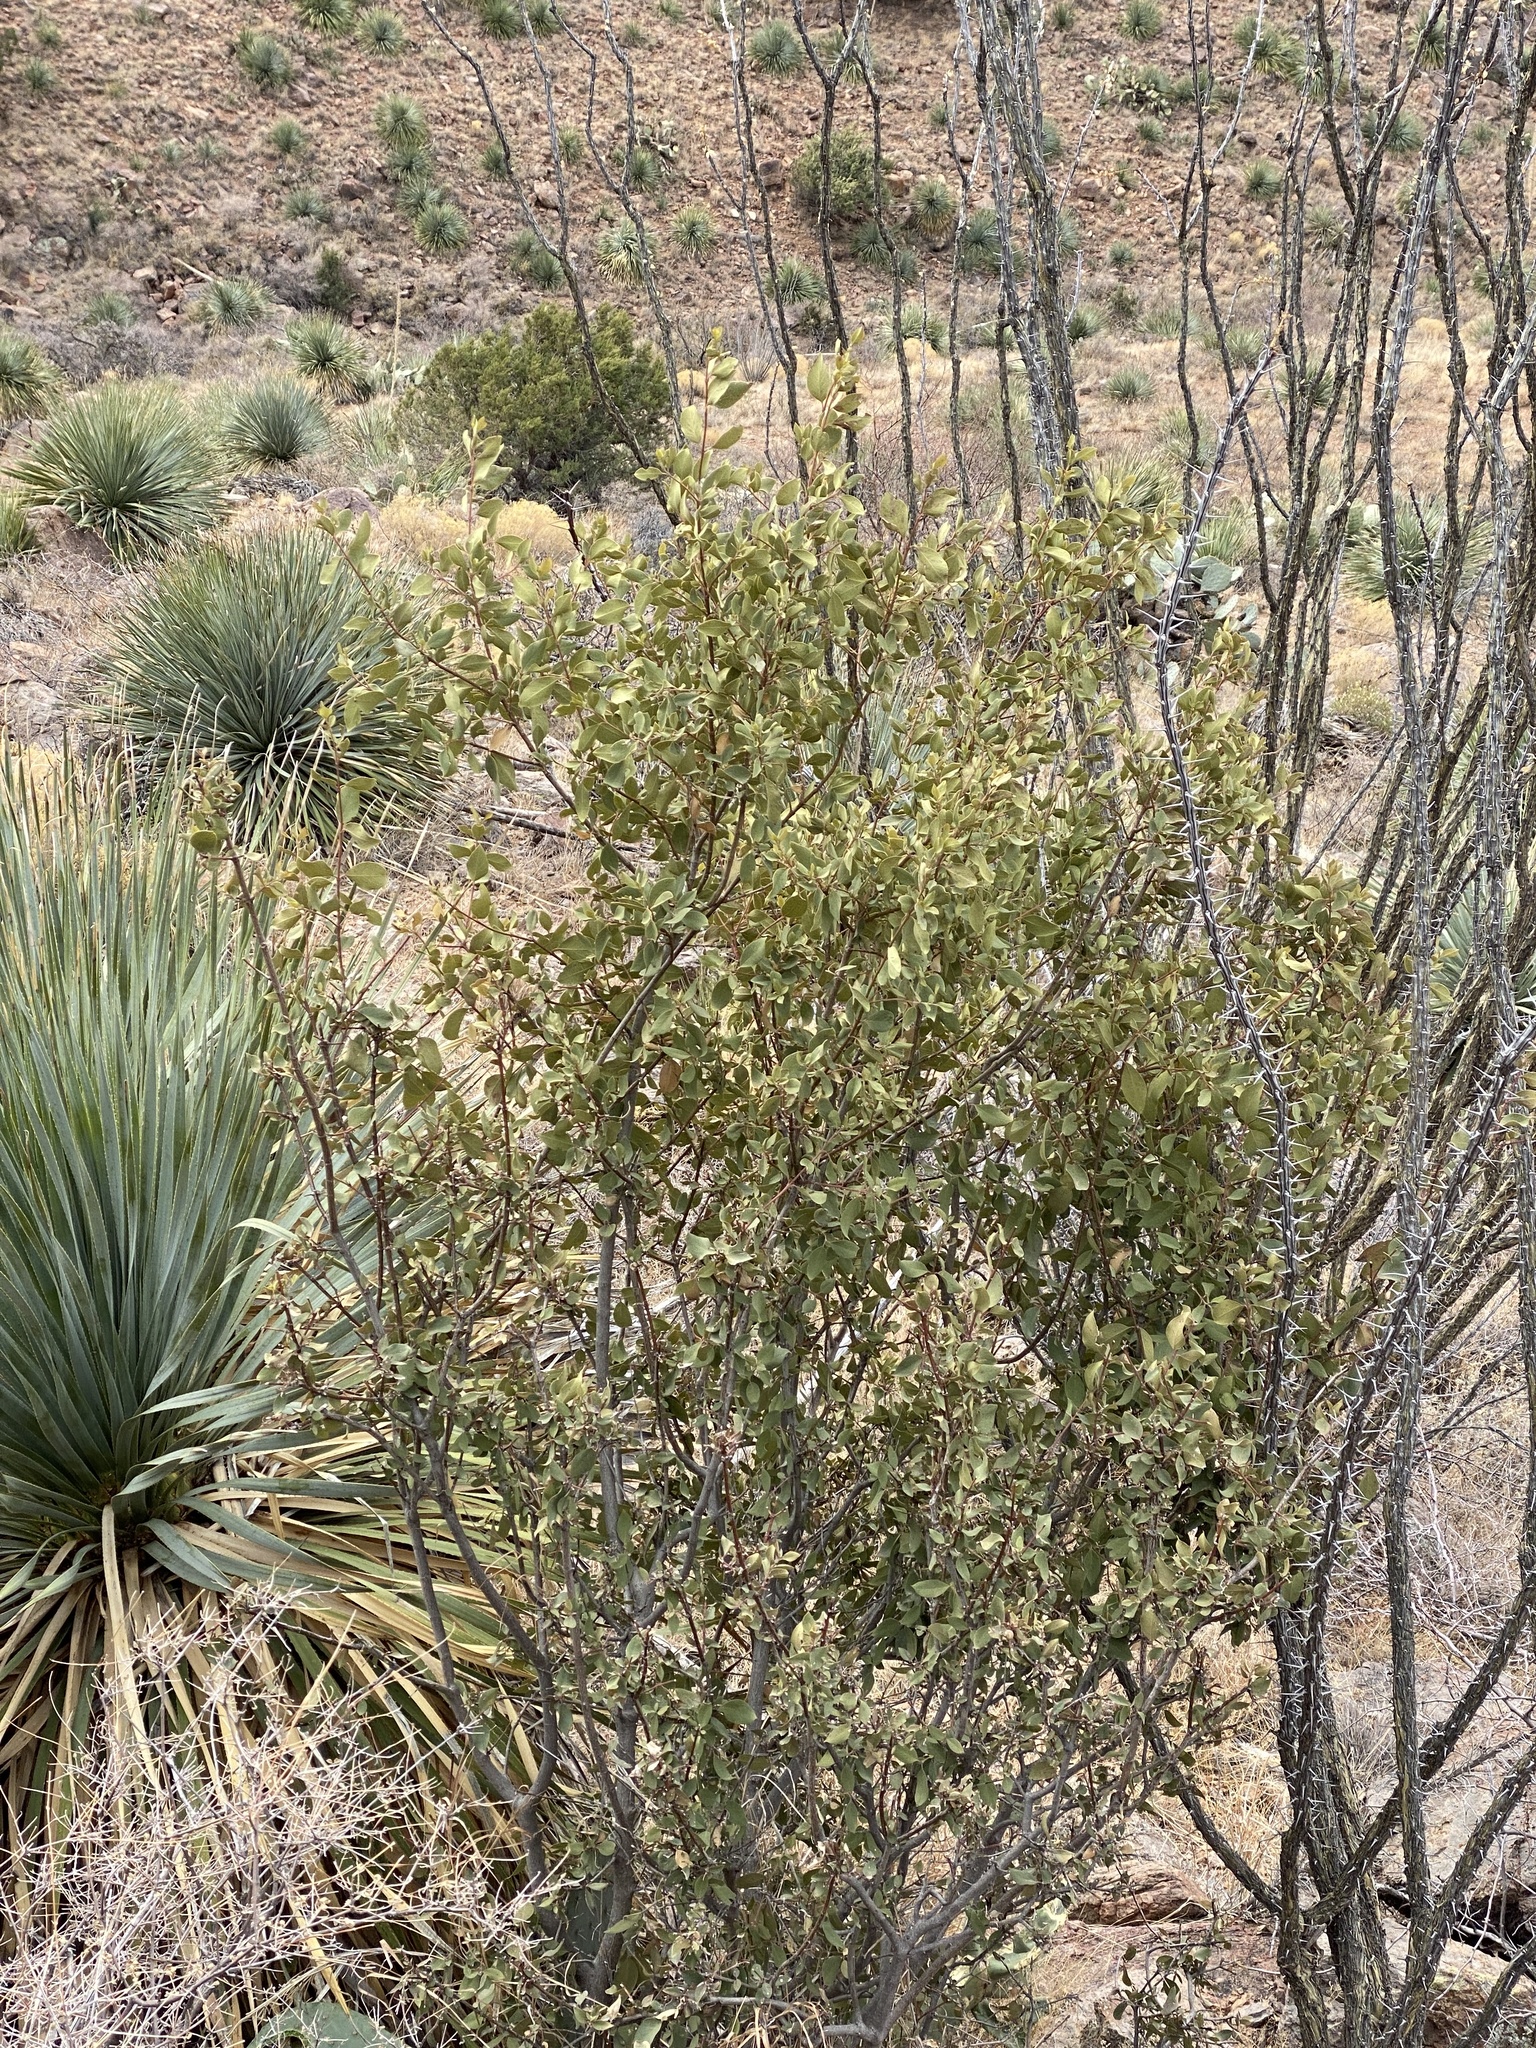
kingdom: Plantae
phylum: Tracheophyta
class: Magnoliopsida
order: Garryales
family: Garryaceae
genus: Garrya
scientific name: Garrya wrightii
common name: Wright's silktassel
